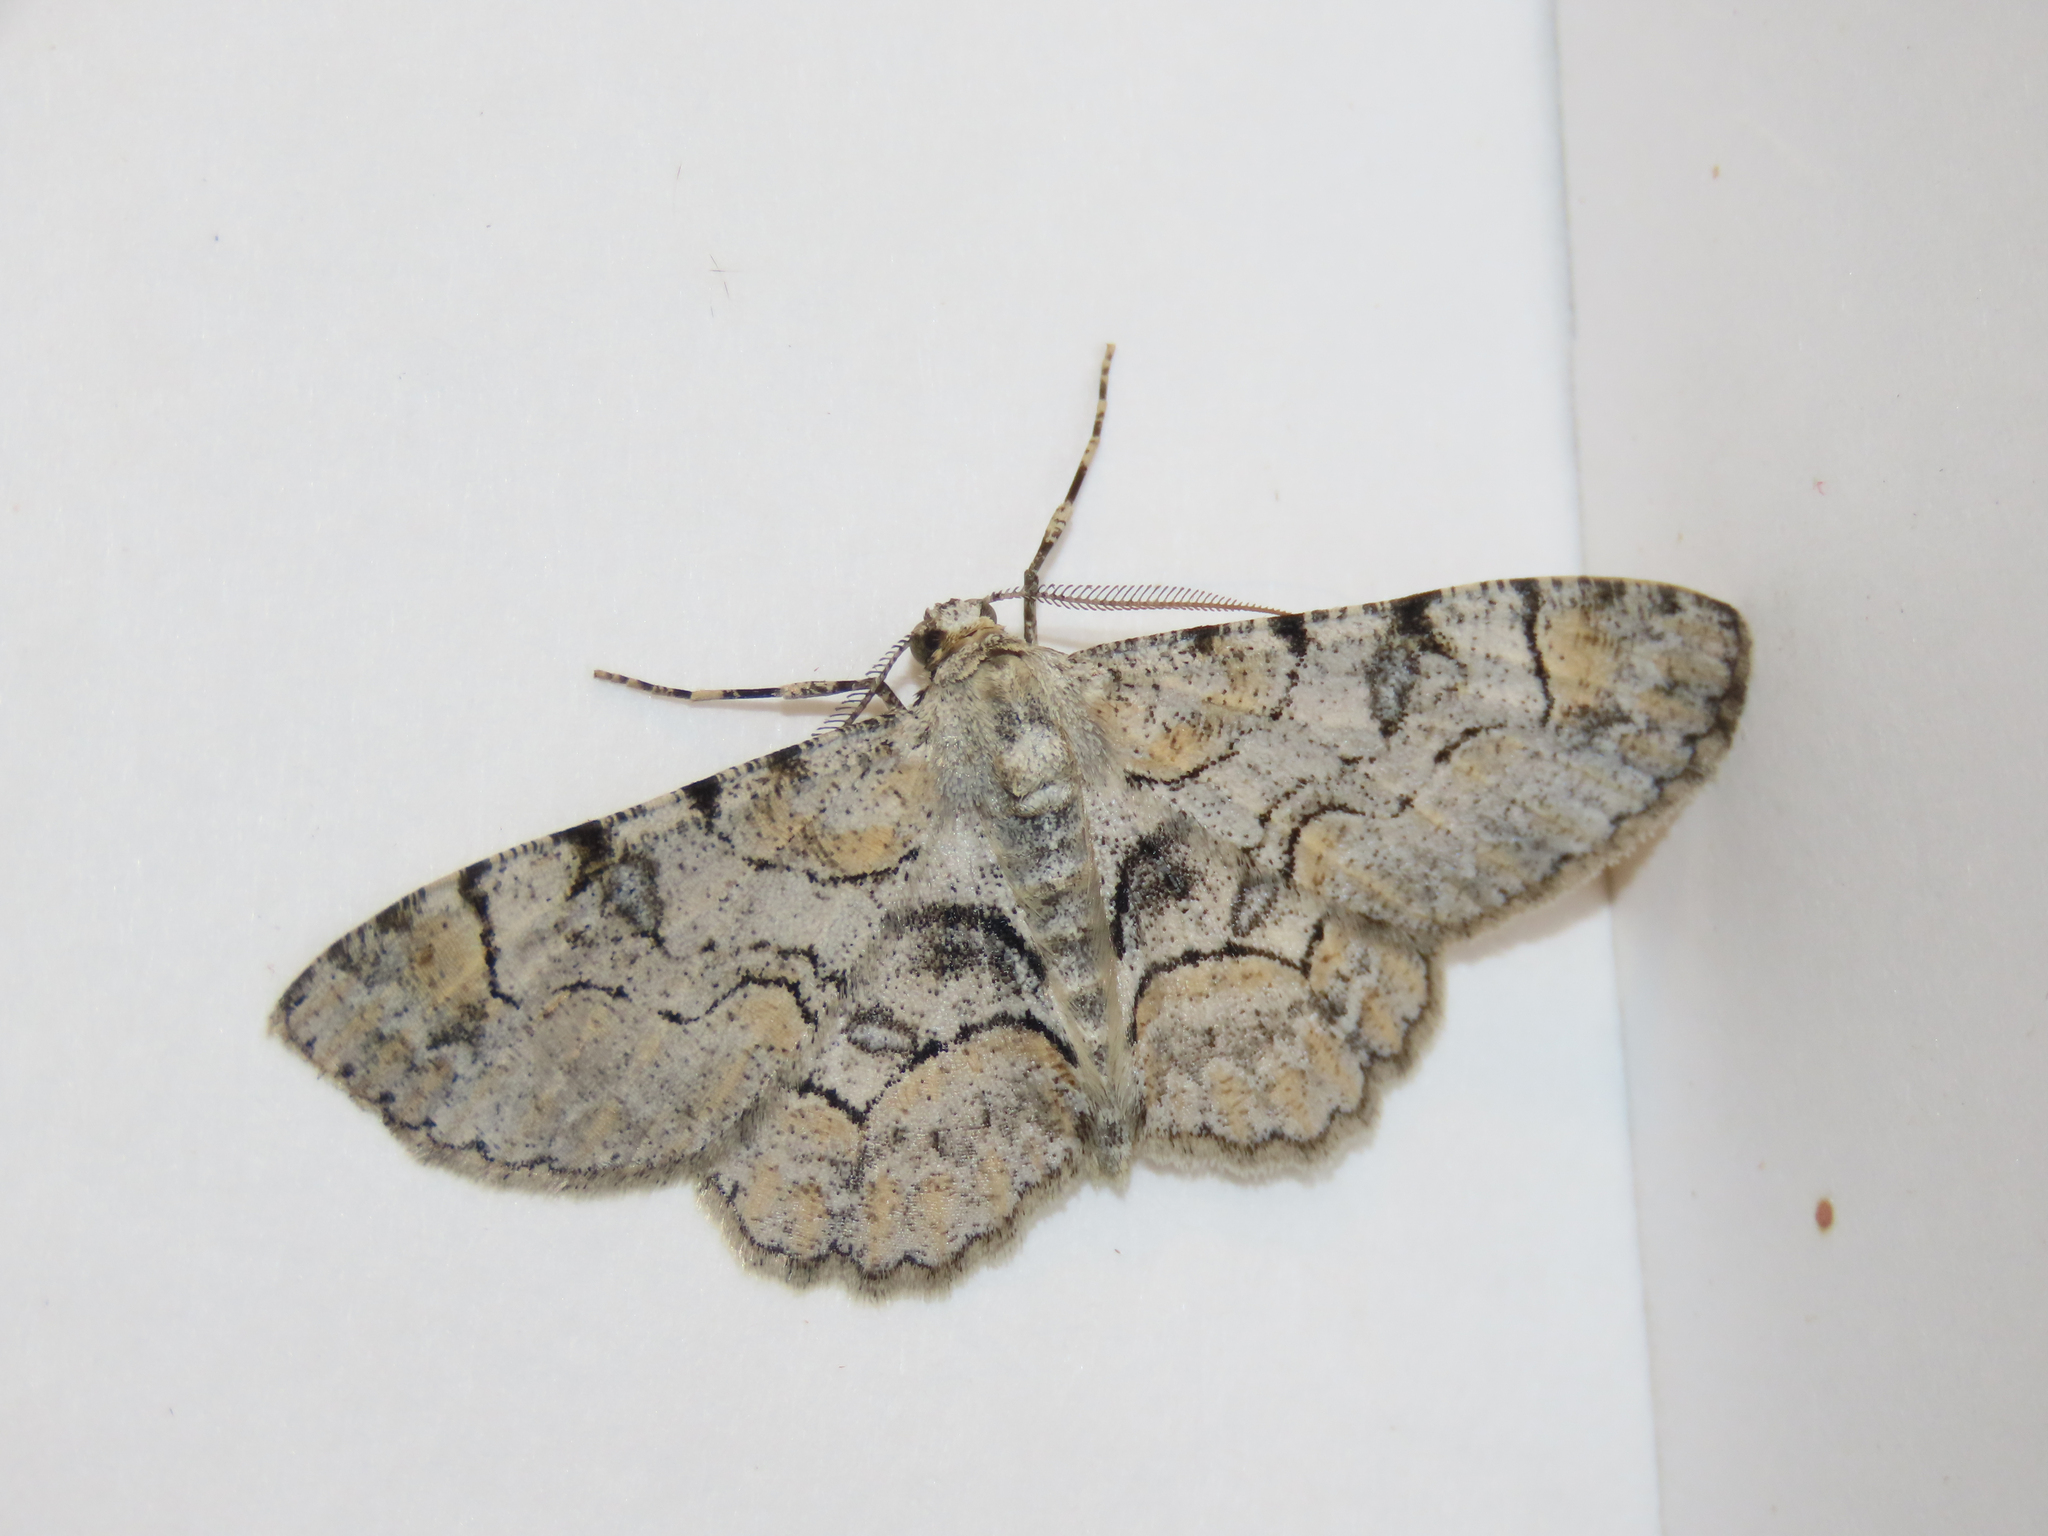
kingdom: Animalia
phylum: Arthropoda
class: Insecta
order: Lepidoptera
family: Geometridae
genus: Iridopsis
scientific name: Iridopsis larvaria
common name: Bent-line gray
